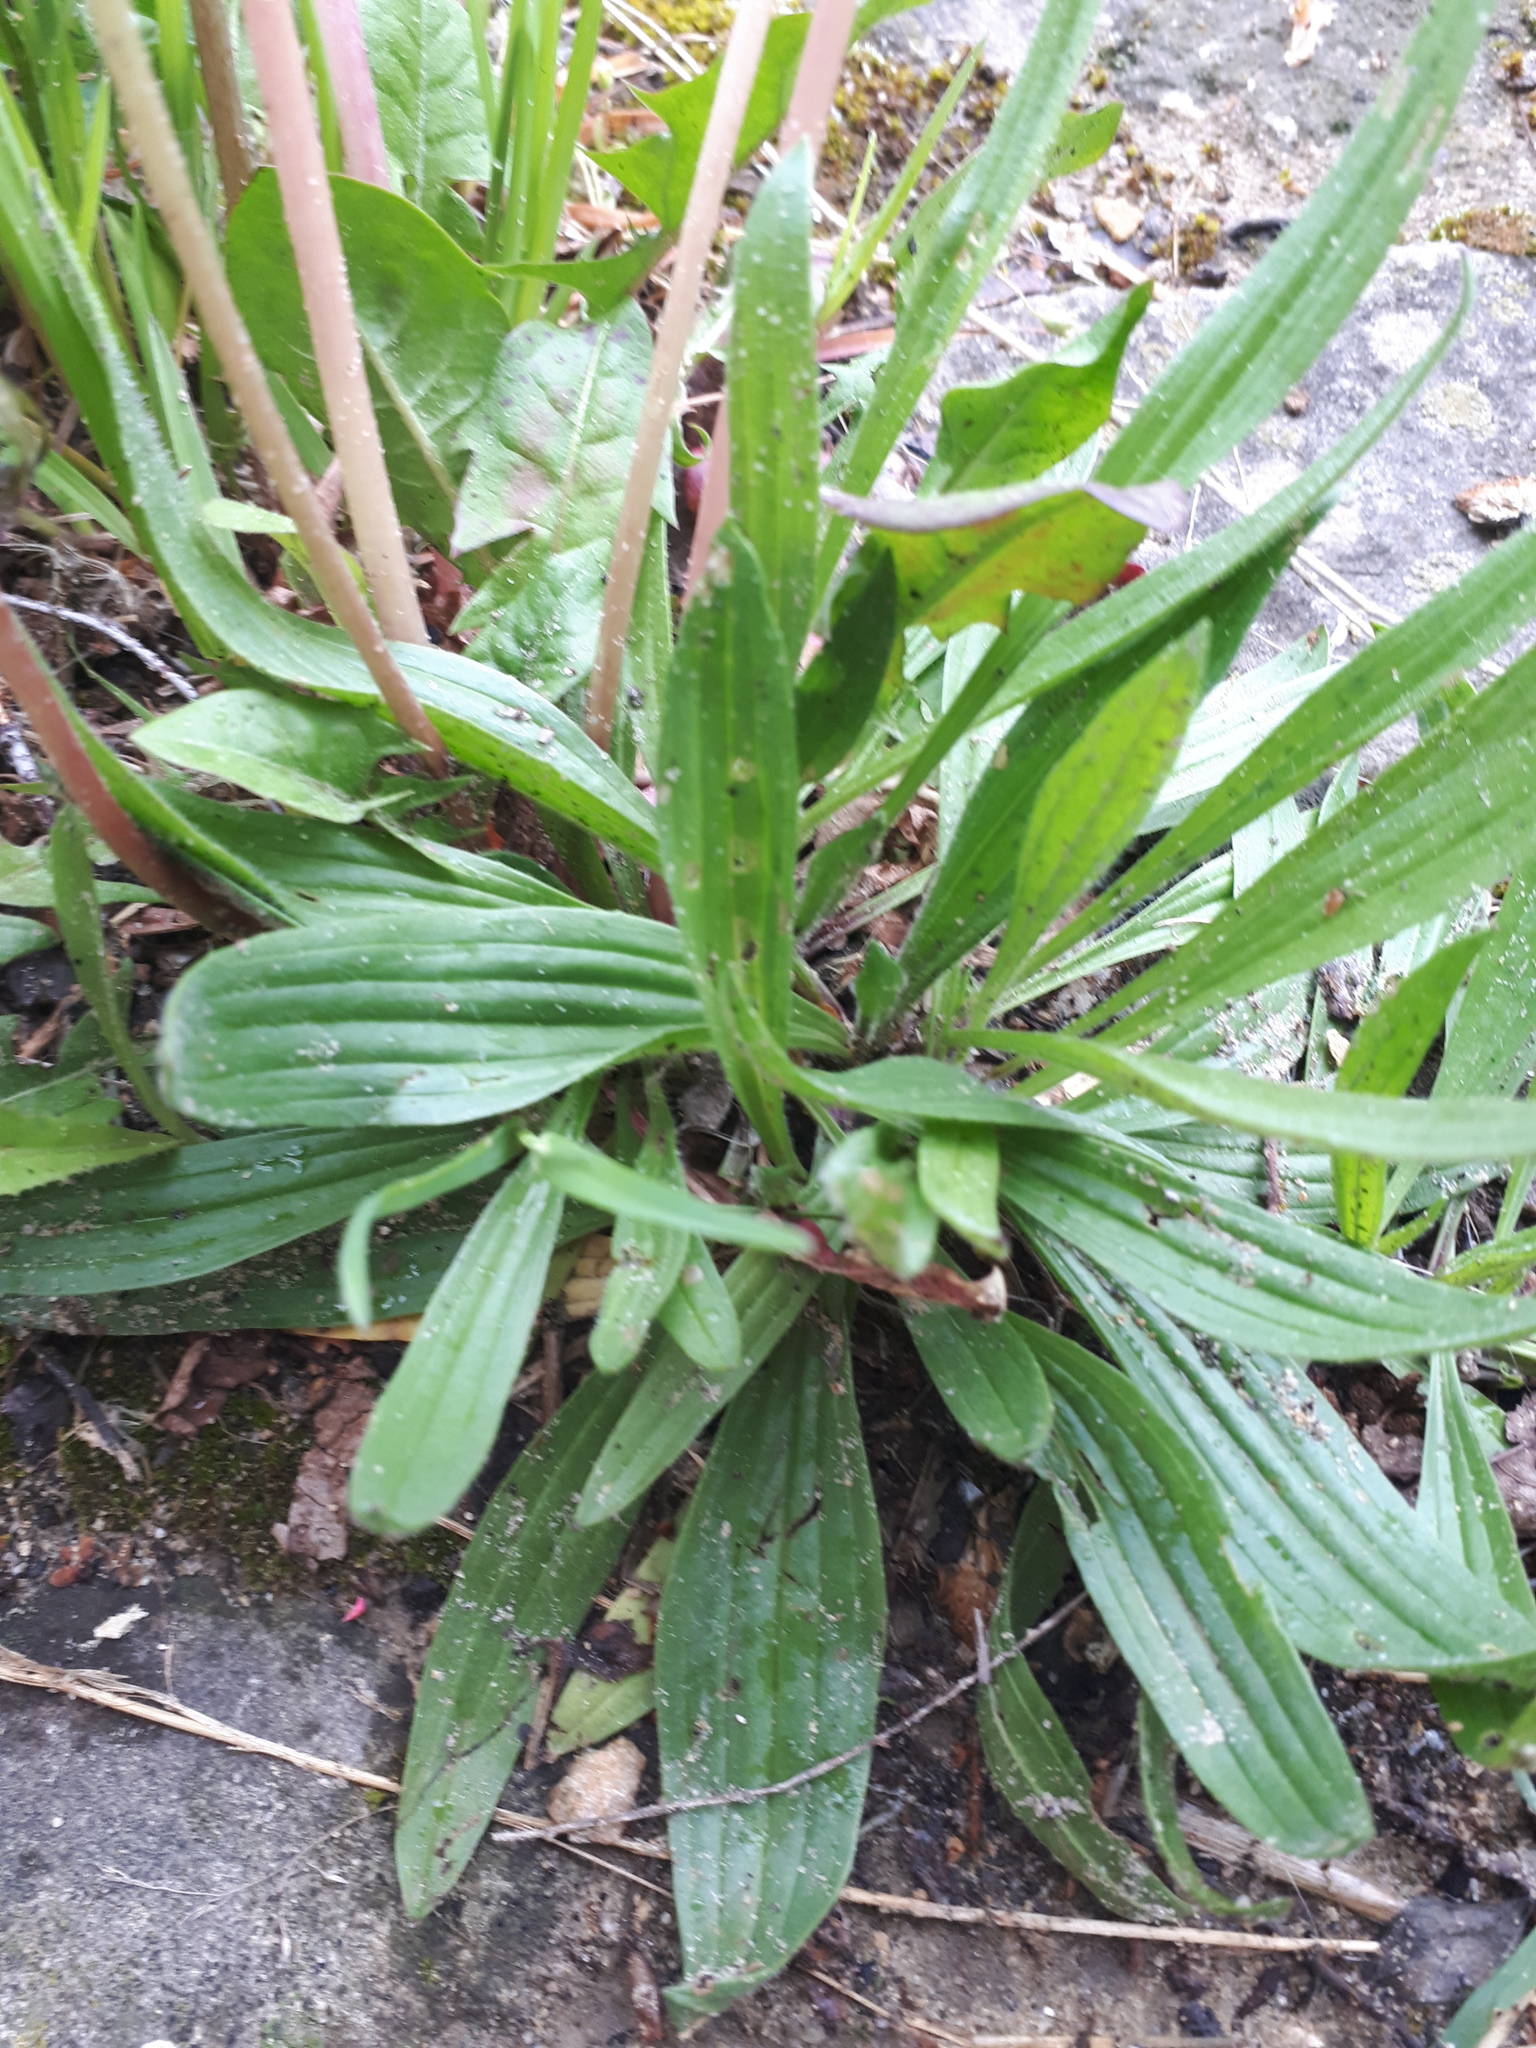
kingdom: Plantae
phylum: Tracheophyta
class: Magnoliopsida
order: Lamiales
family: Plantaginaceae
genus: Plantago
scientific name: Plantago lanceolata
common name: Ribwort plantain
